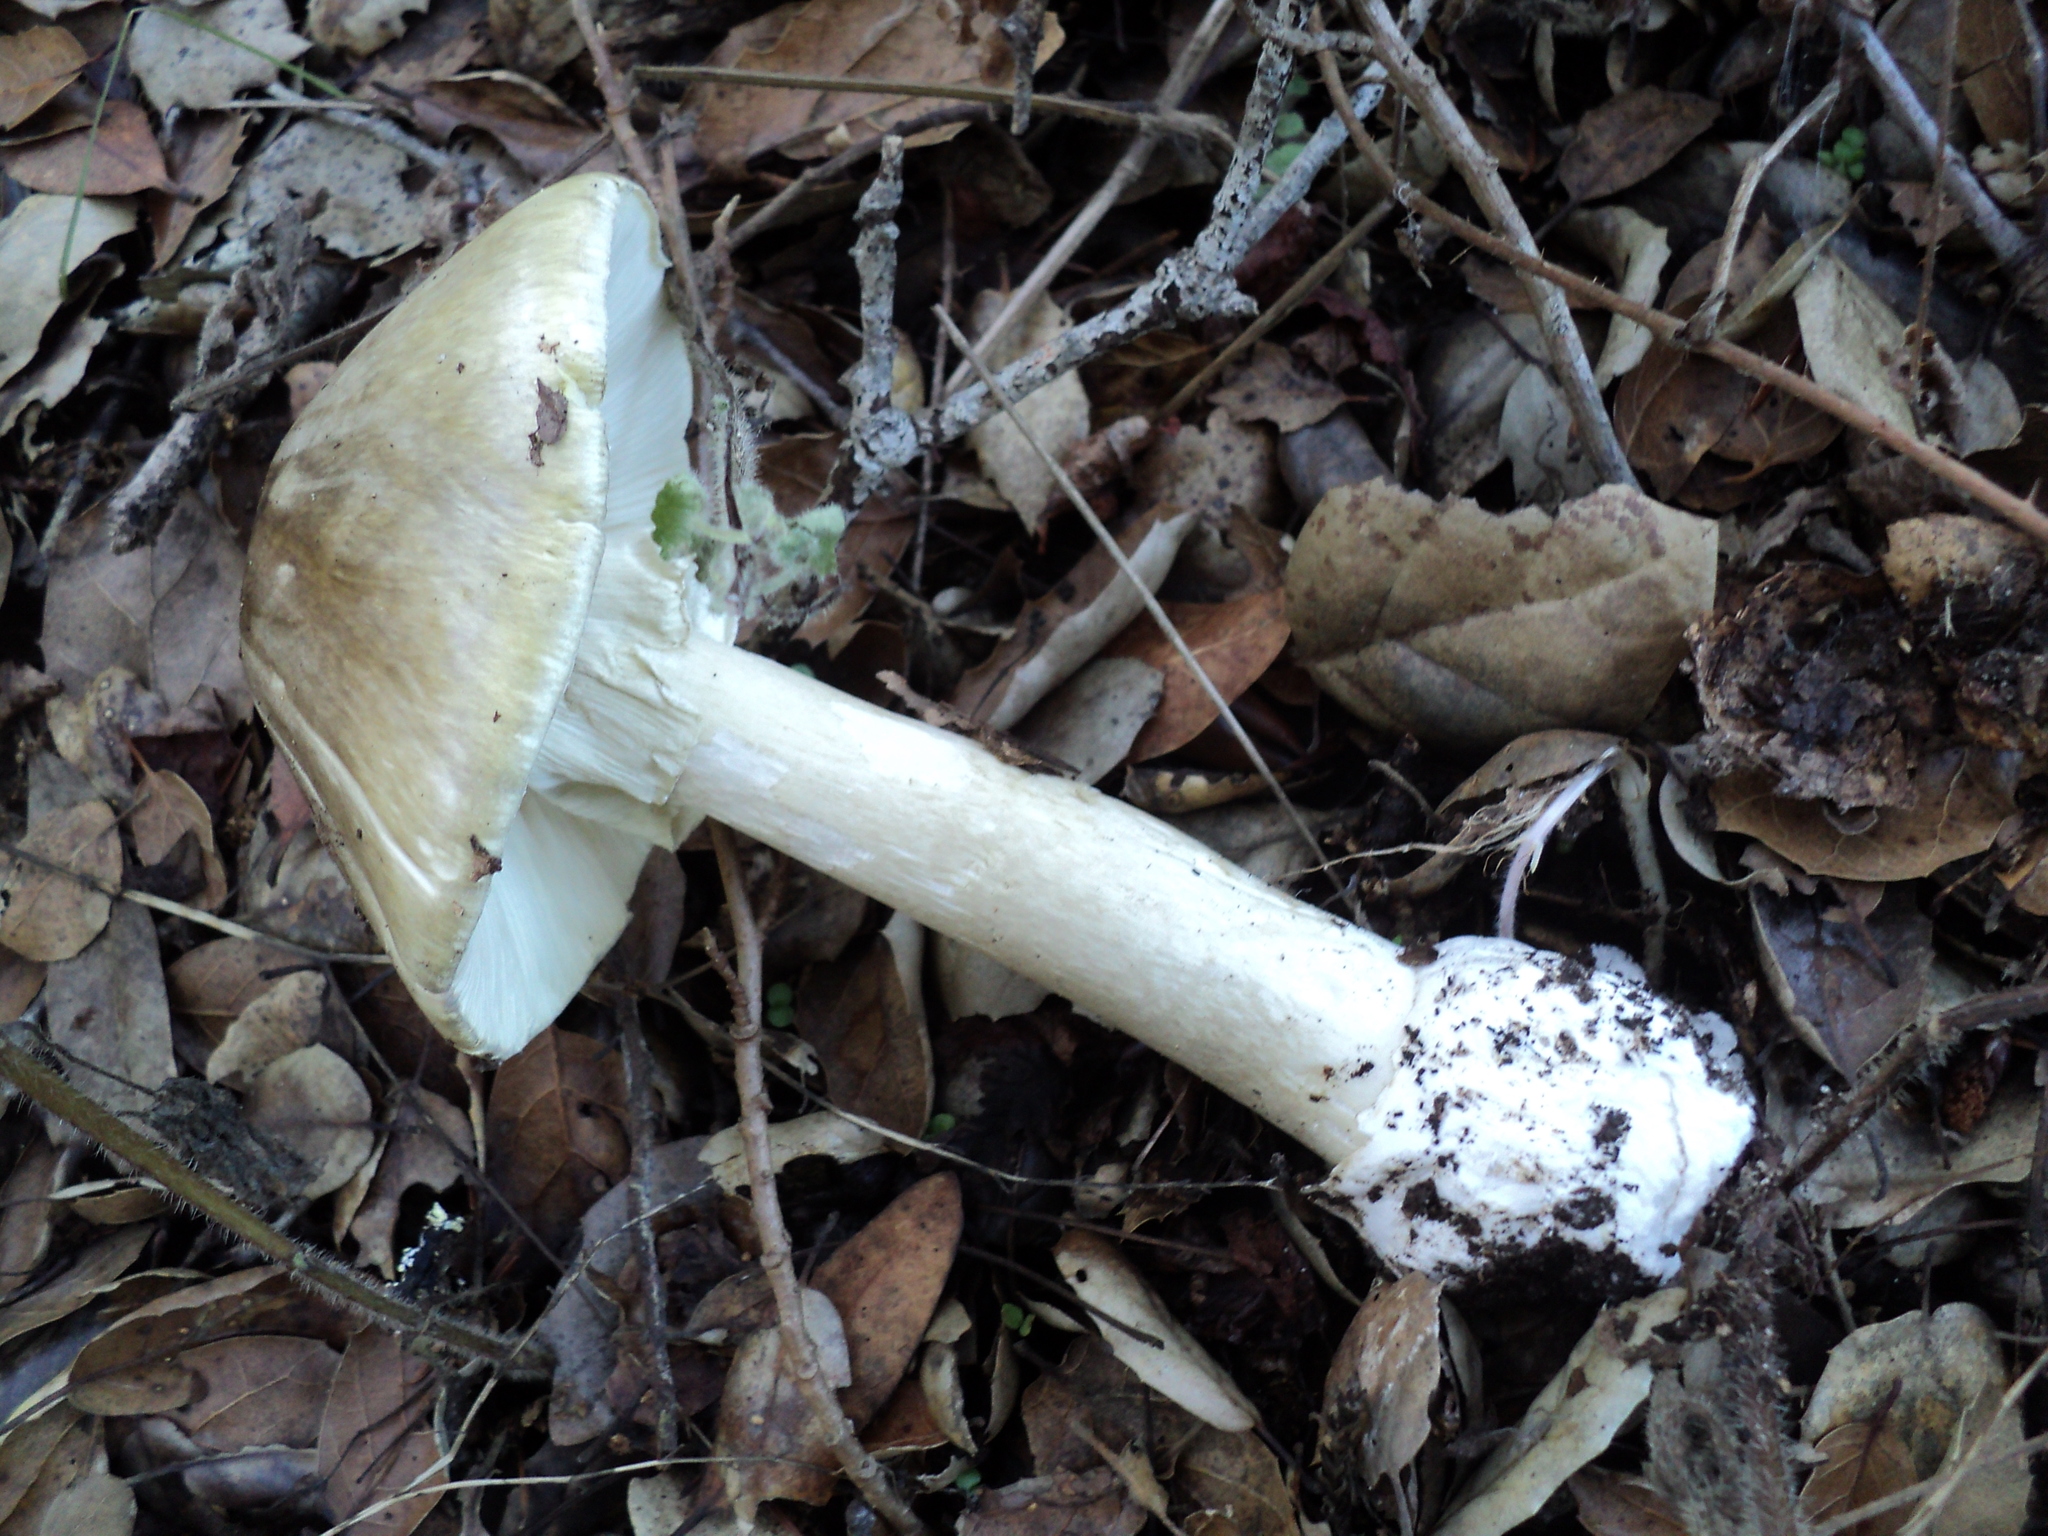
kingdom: Fungi
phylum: Basidiomycota
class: Agaricomycetes
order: Agaricales
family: Amanitaceae
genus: Amanita
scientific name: Amanita phalloides
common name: Death cap
